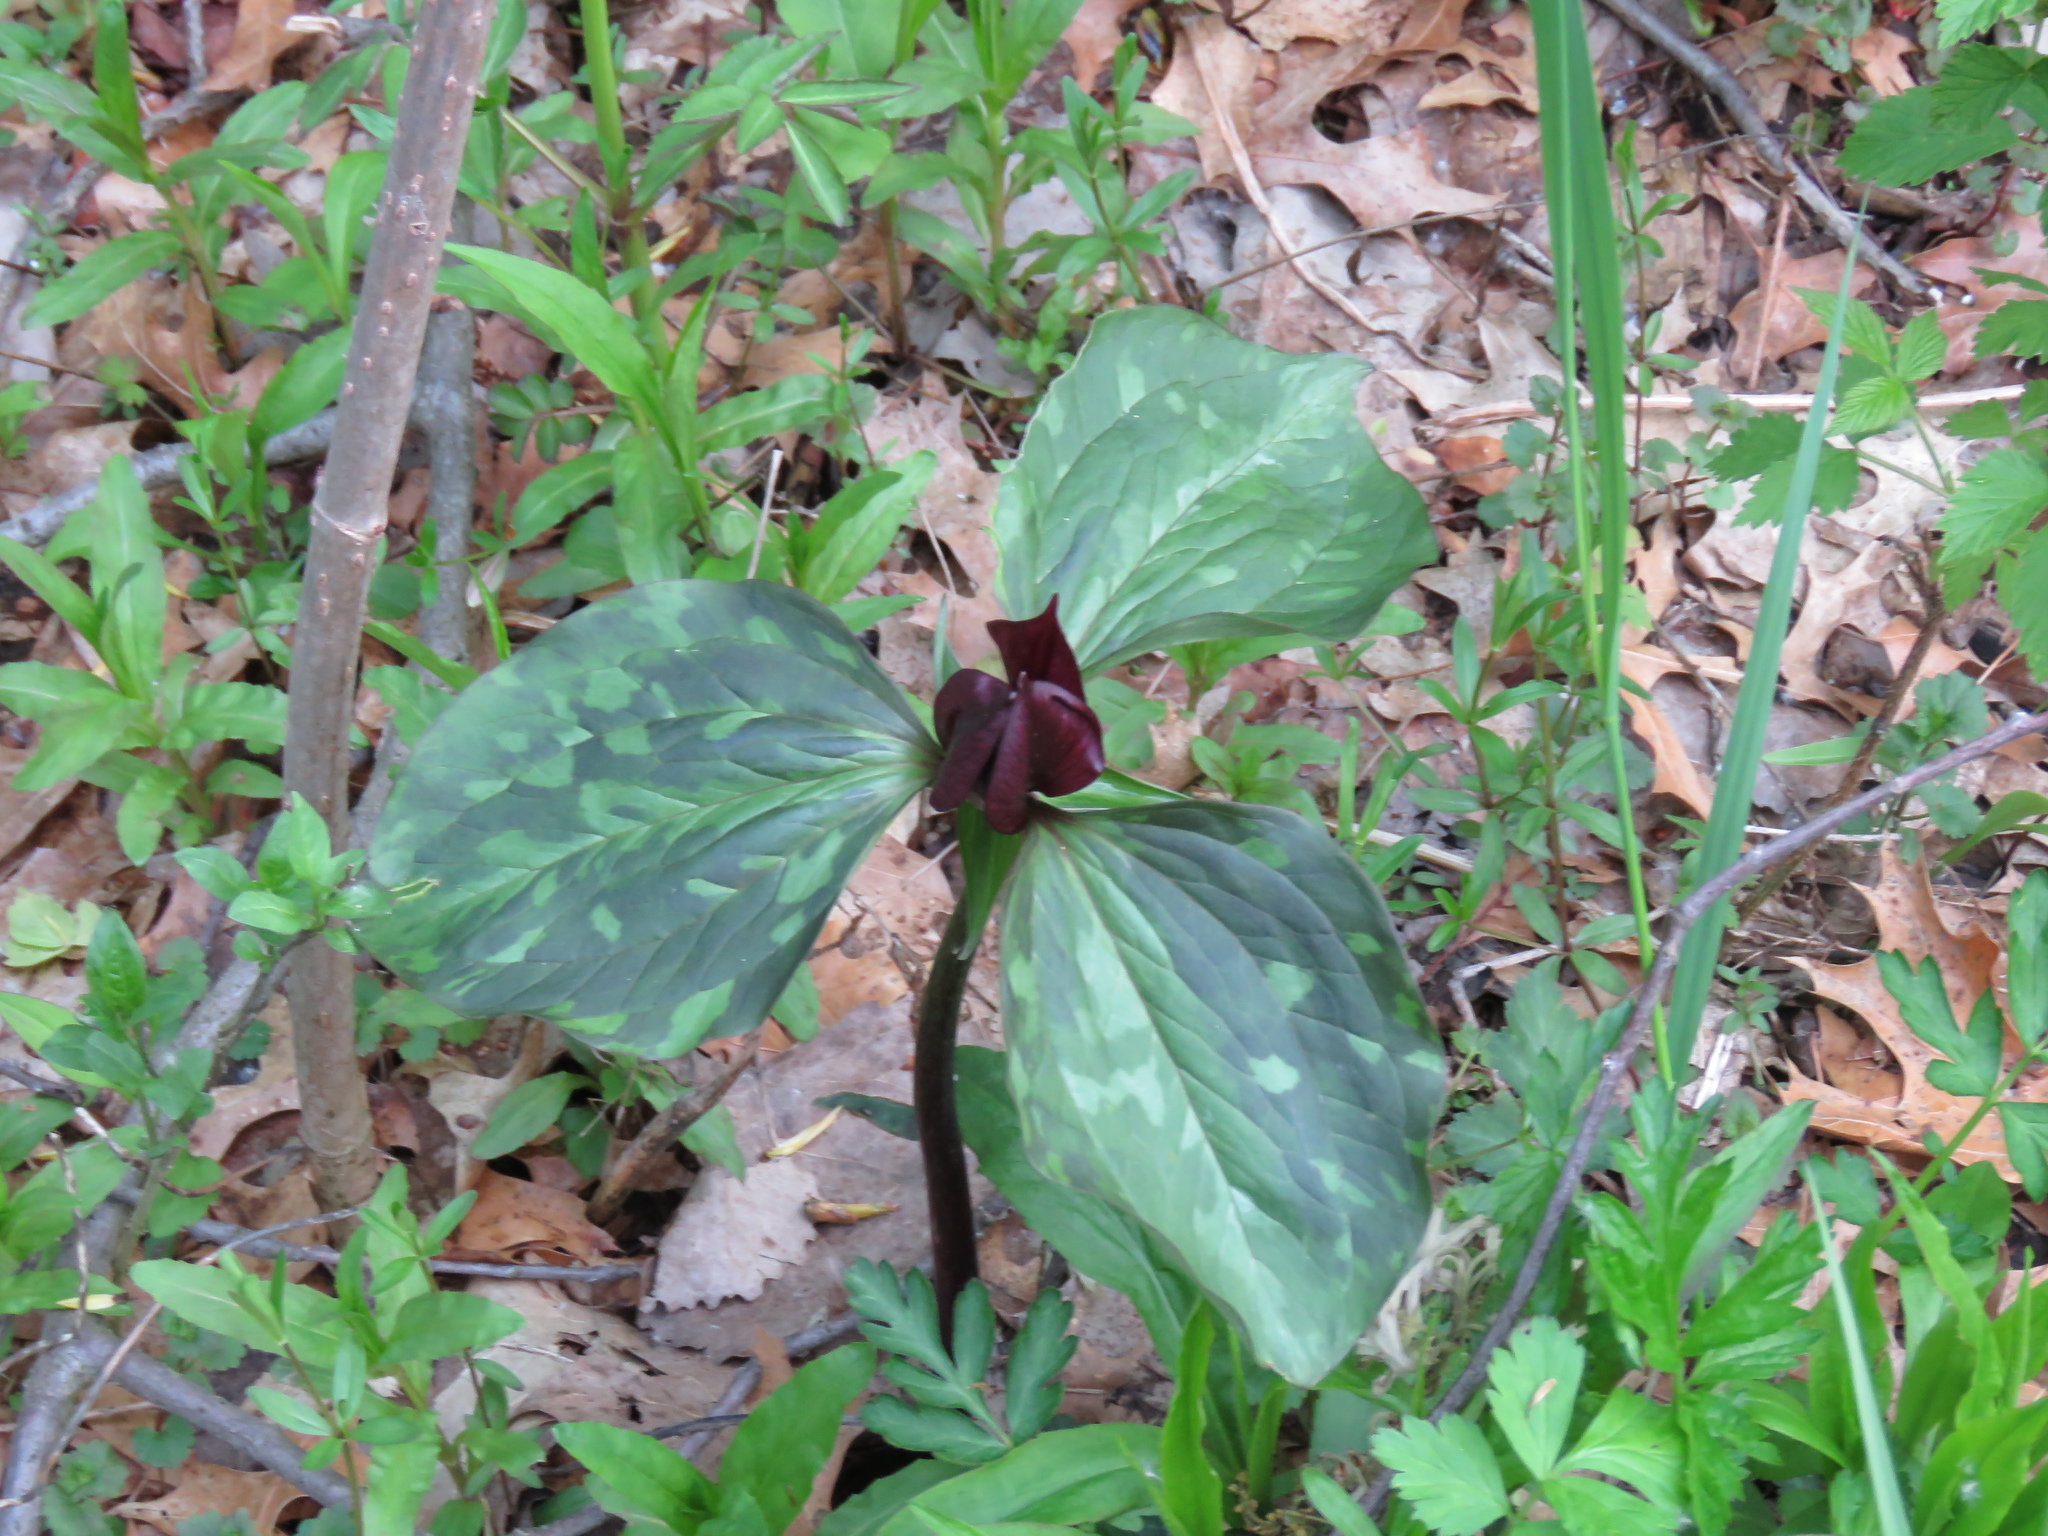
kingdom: Plantae
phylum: Tracheophyta
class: Liliopsida
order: Liliales
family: Melanthiaceae
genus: Trillium
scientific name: Trillium recurvatum
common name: Bloody butcher
